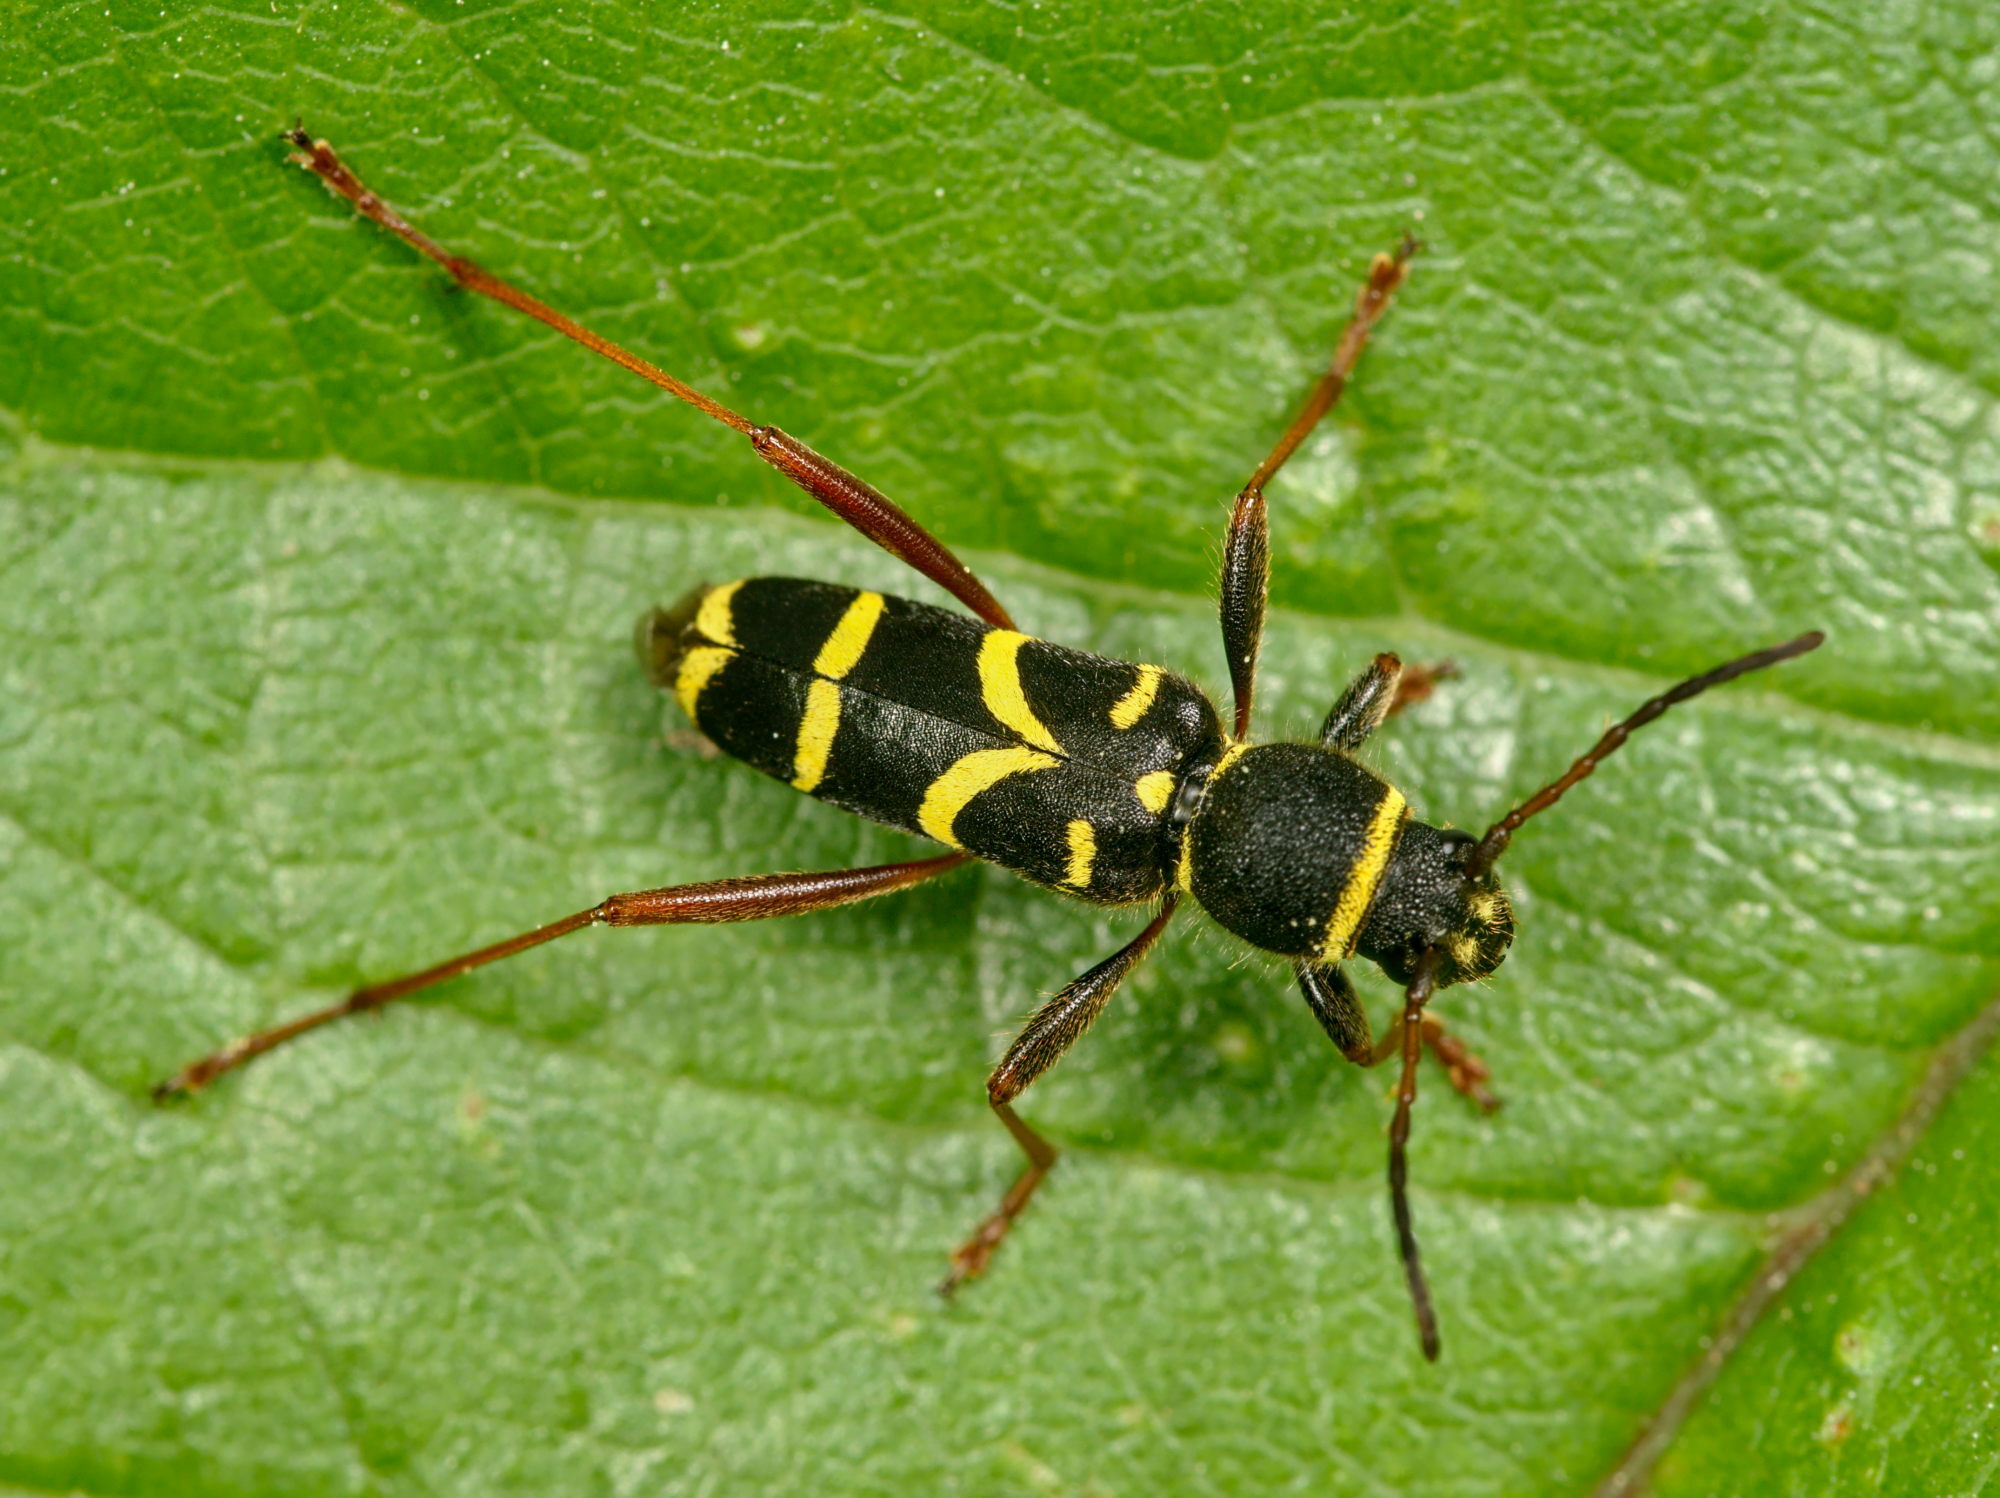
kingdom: Animalia
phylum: Arthropoda
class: Insecta
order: Coleoptera
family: Cerambycidae
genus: Clytus
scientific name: Clytus arietis
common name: Wasp beetle
